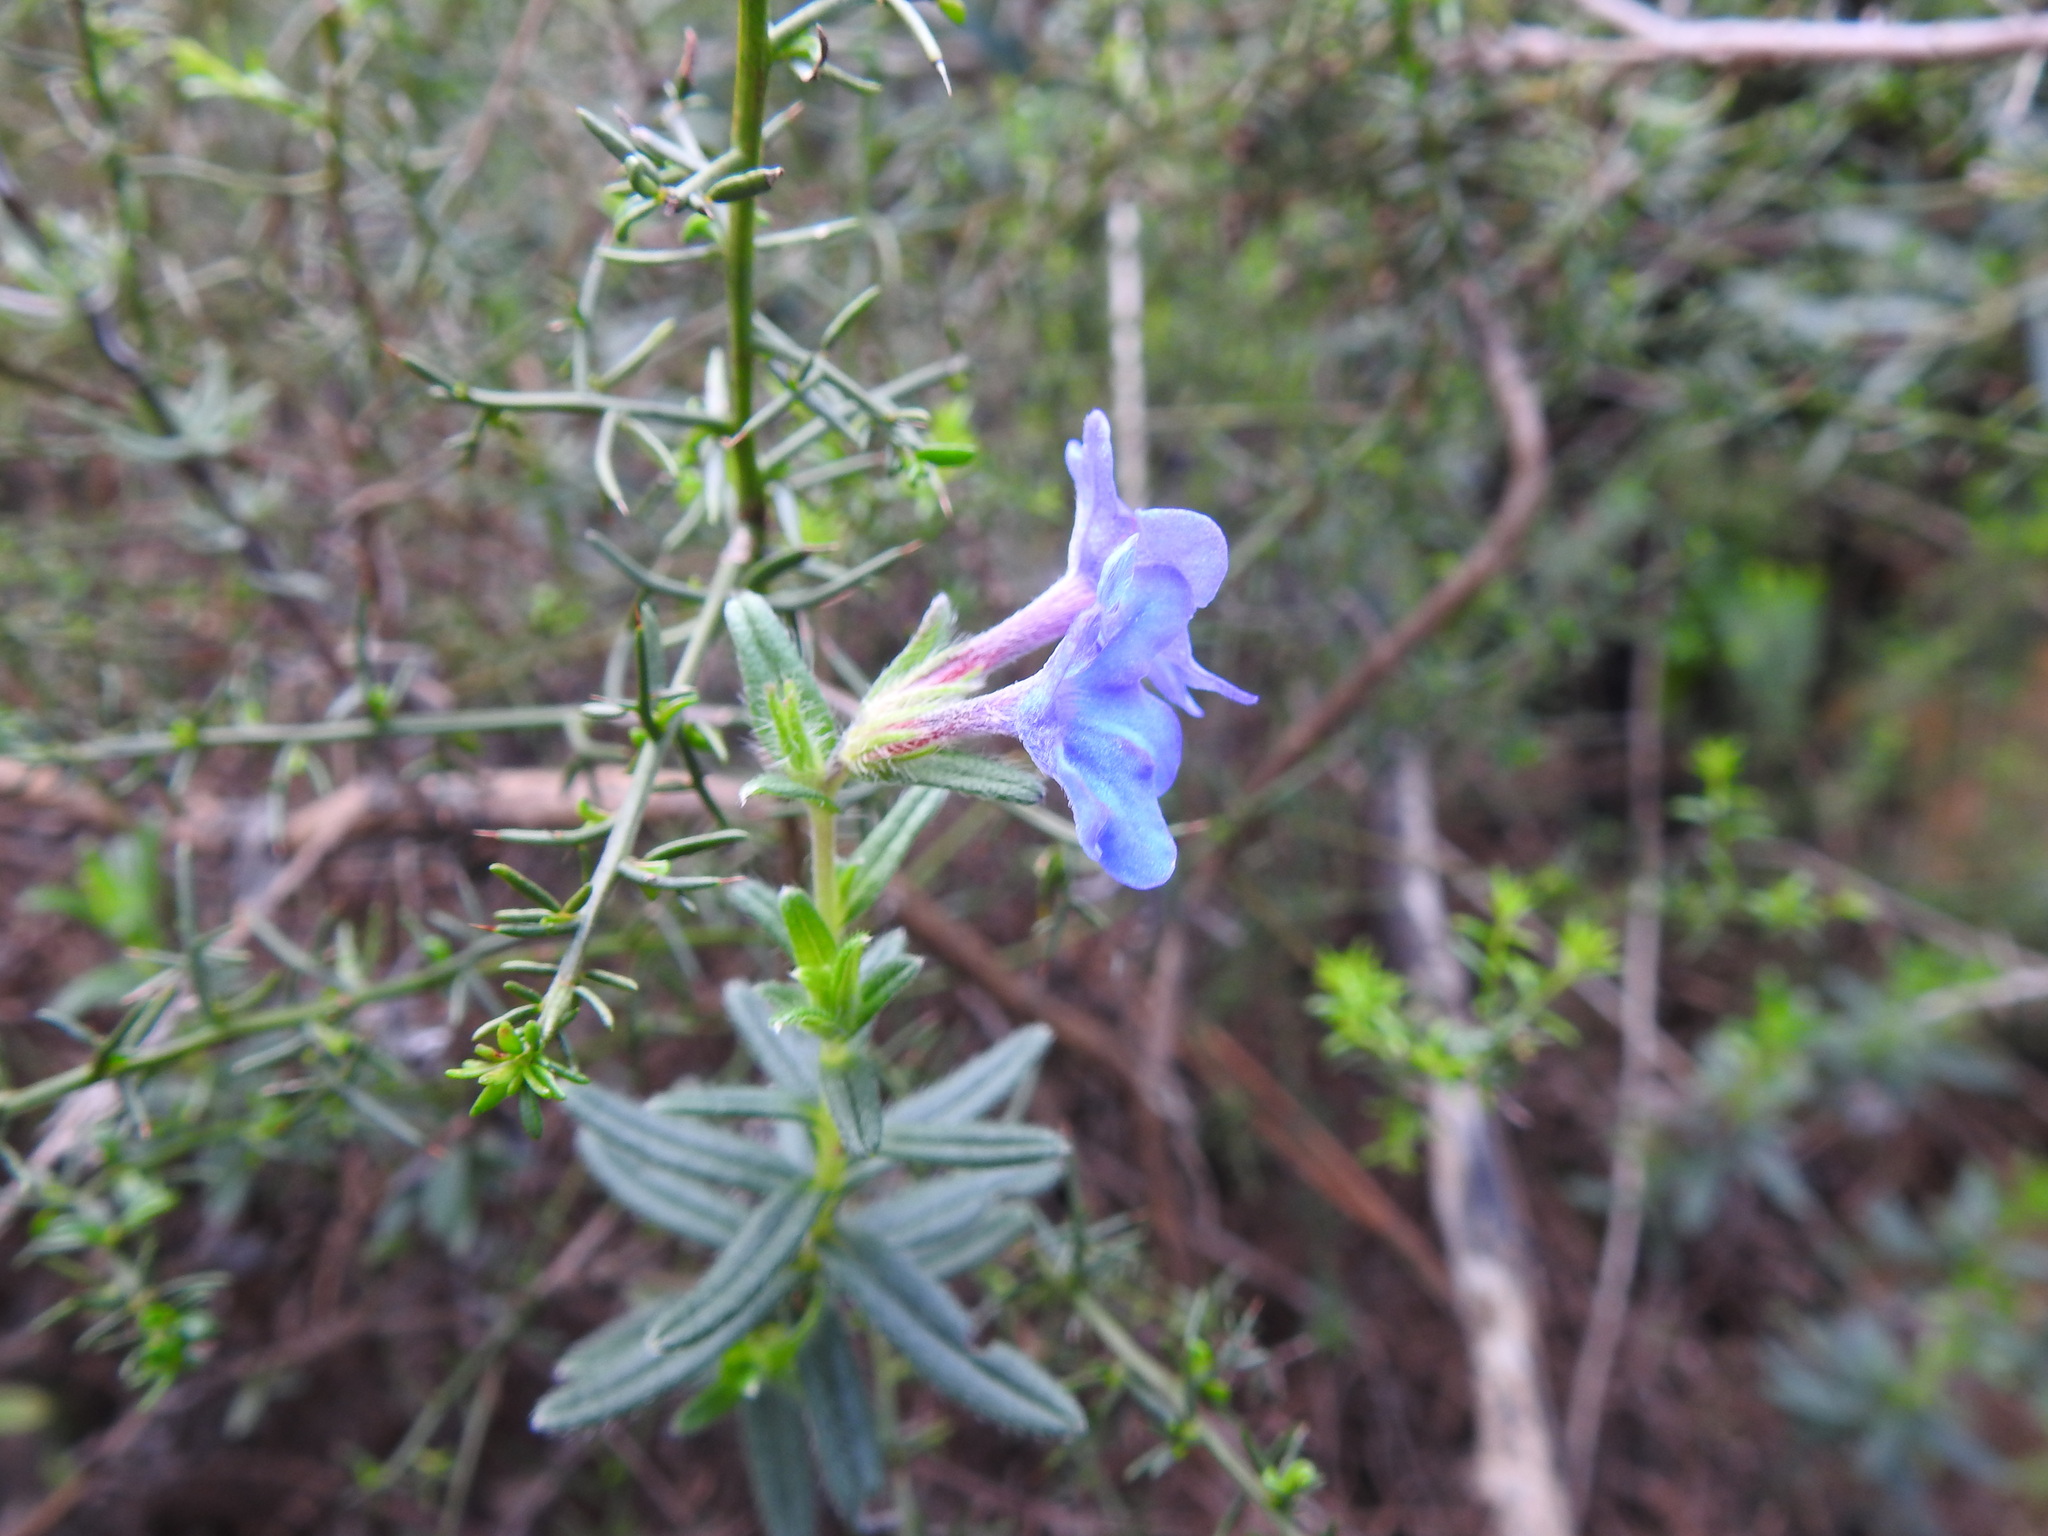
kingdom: Plantae
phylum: Tracheophyta
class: Magnoliopsida
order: Boraginales
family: Boraginaceae
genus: Glandora
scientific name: Glandora prostrata
